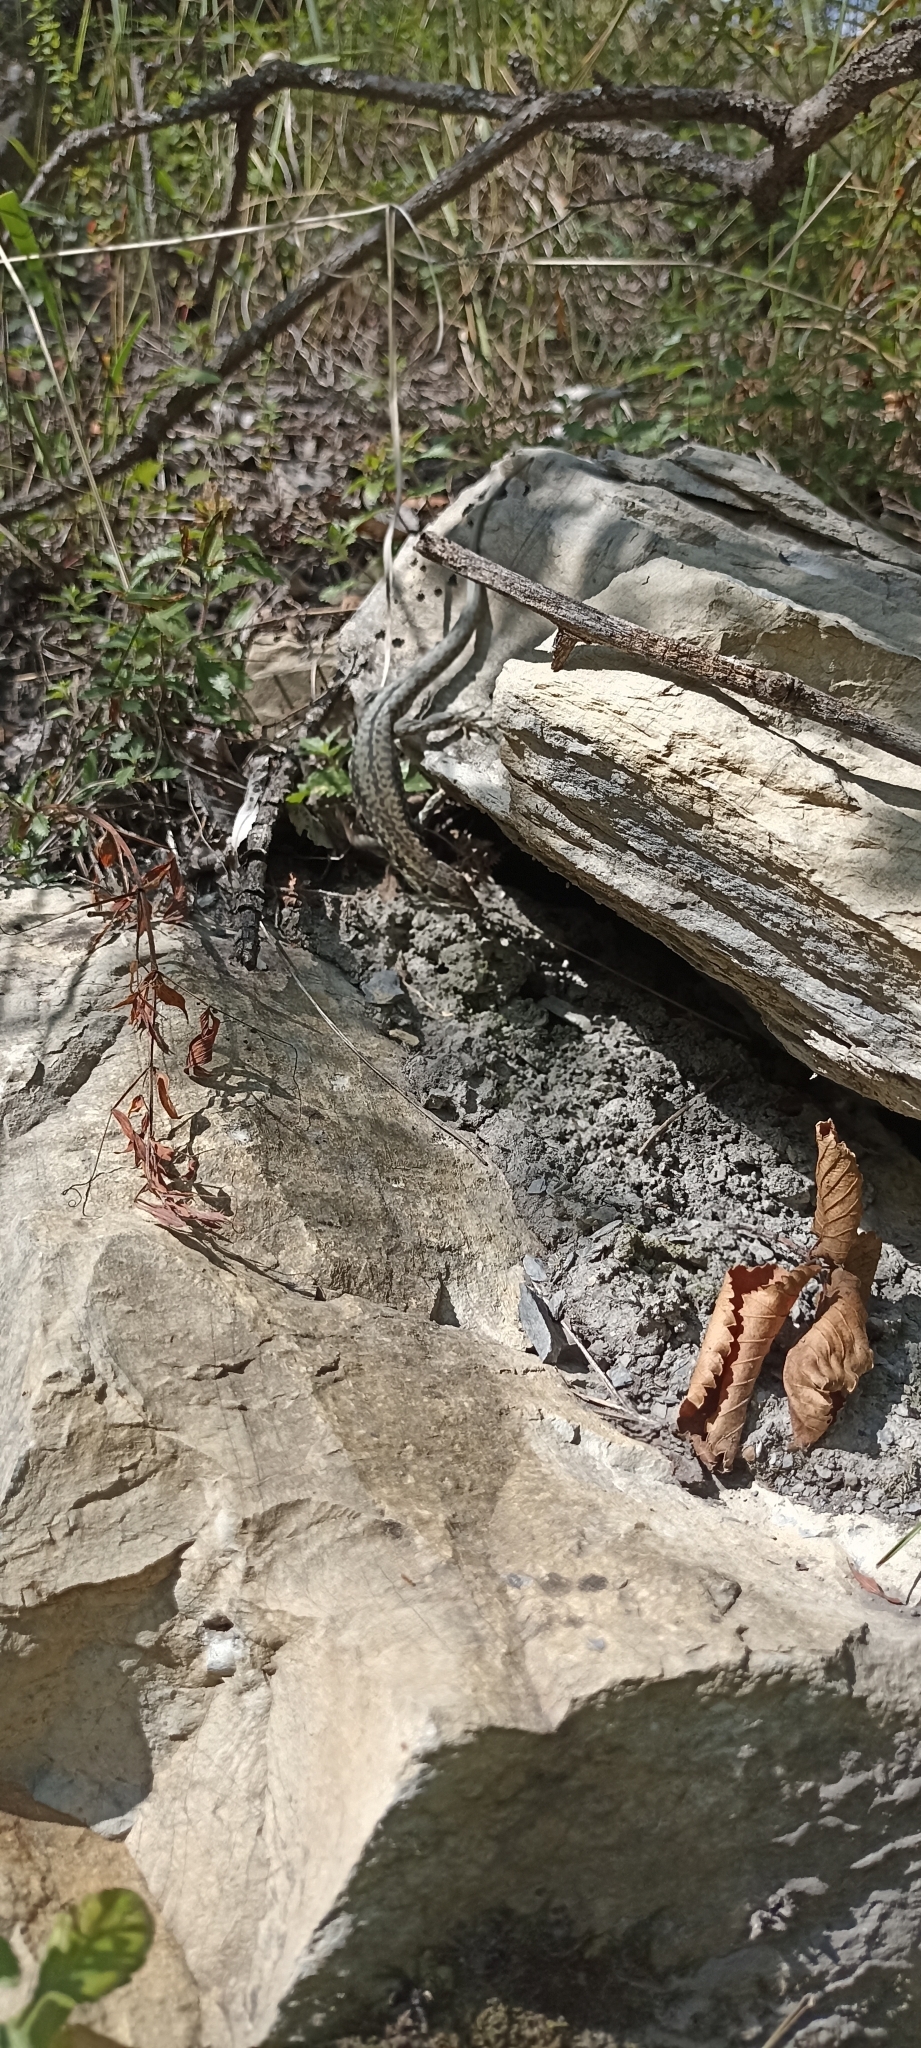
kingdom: Animalia
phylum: Chordata
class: Squamata
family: Lacertidae
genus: Podarcis
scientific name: Podarcis muralis
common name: Common wall lizard
